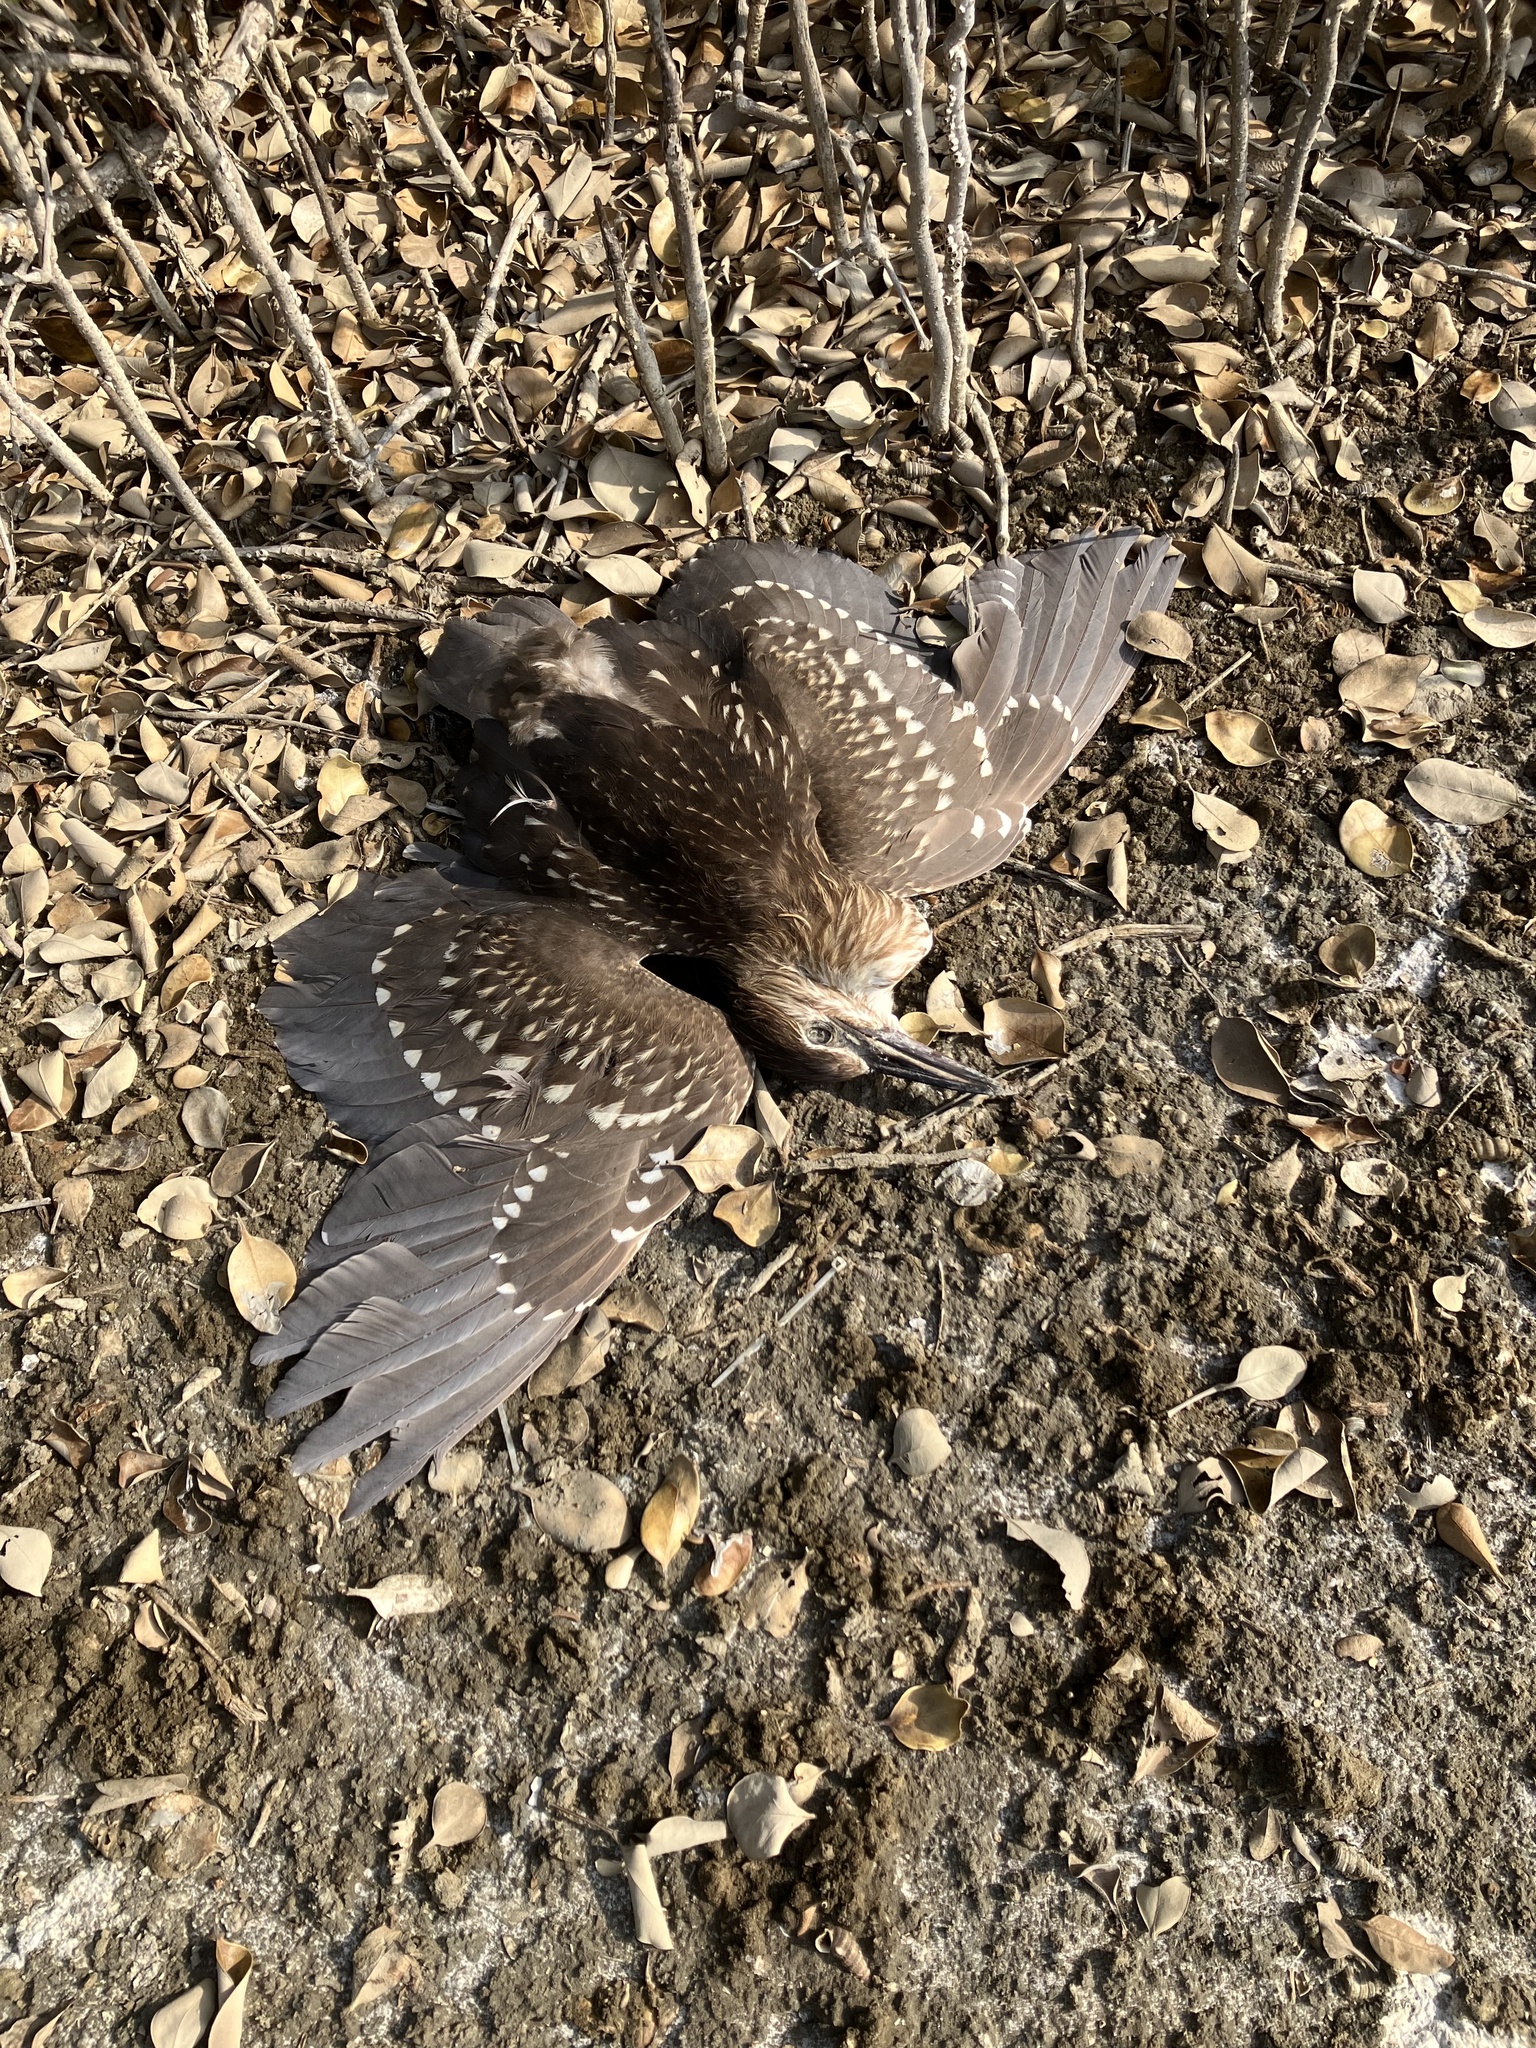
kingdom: Animalia
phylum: Chordata
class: Aves
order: Pelecaniformes
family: Ardeidae
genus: Nycticorax
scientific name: Nycticorax nycticorax
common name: Black-crowned night heron
